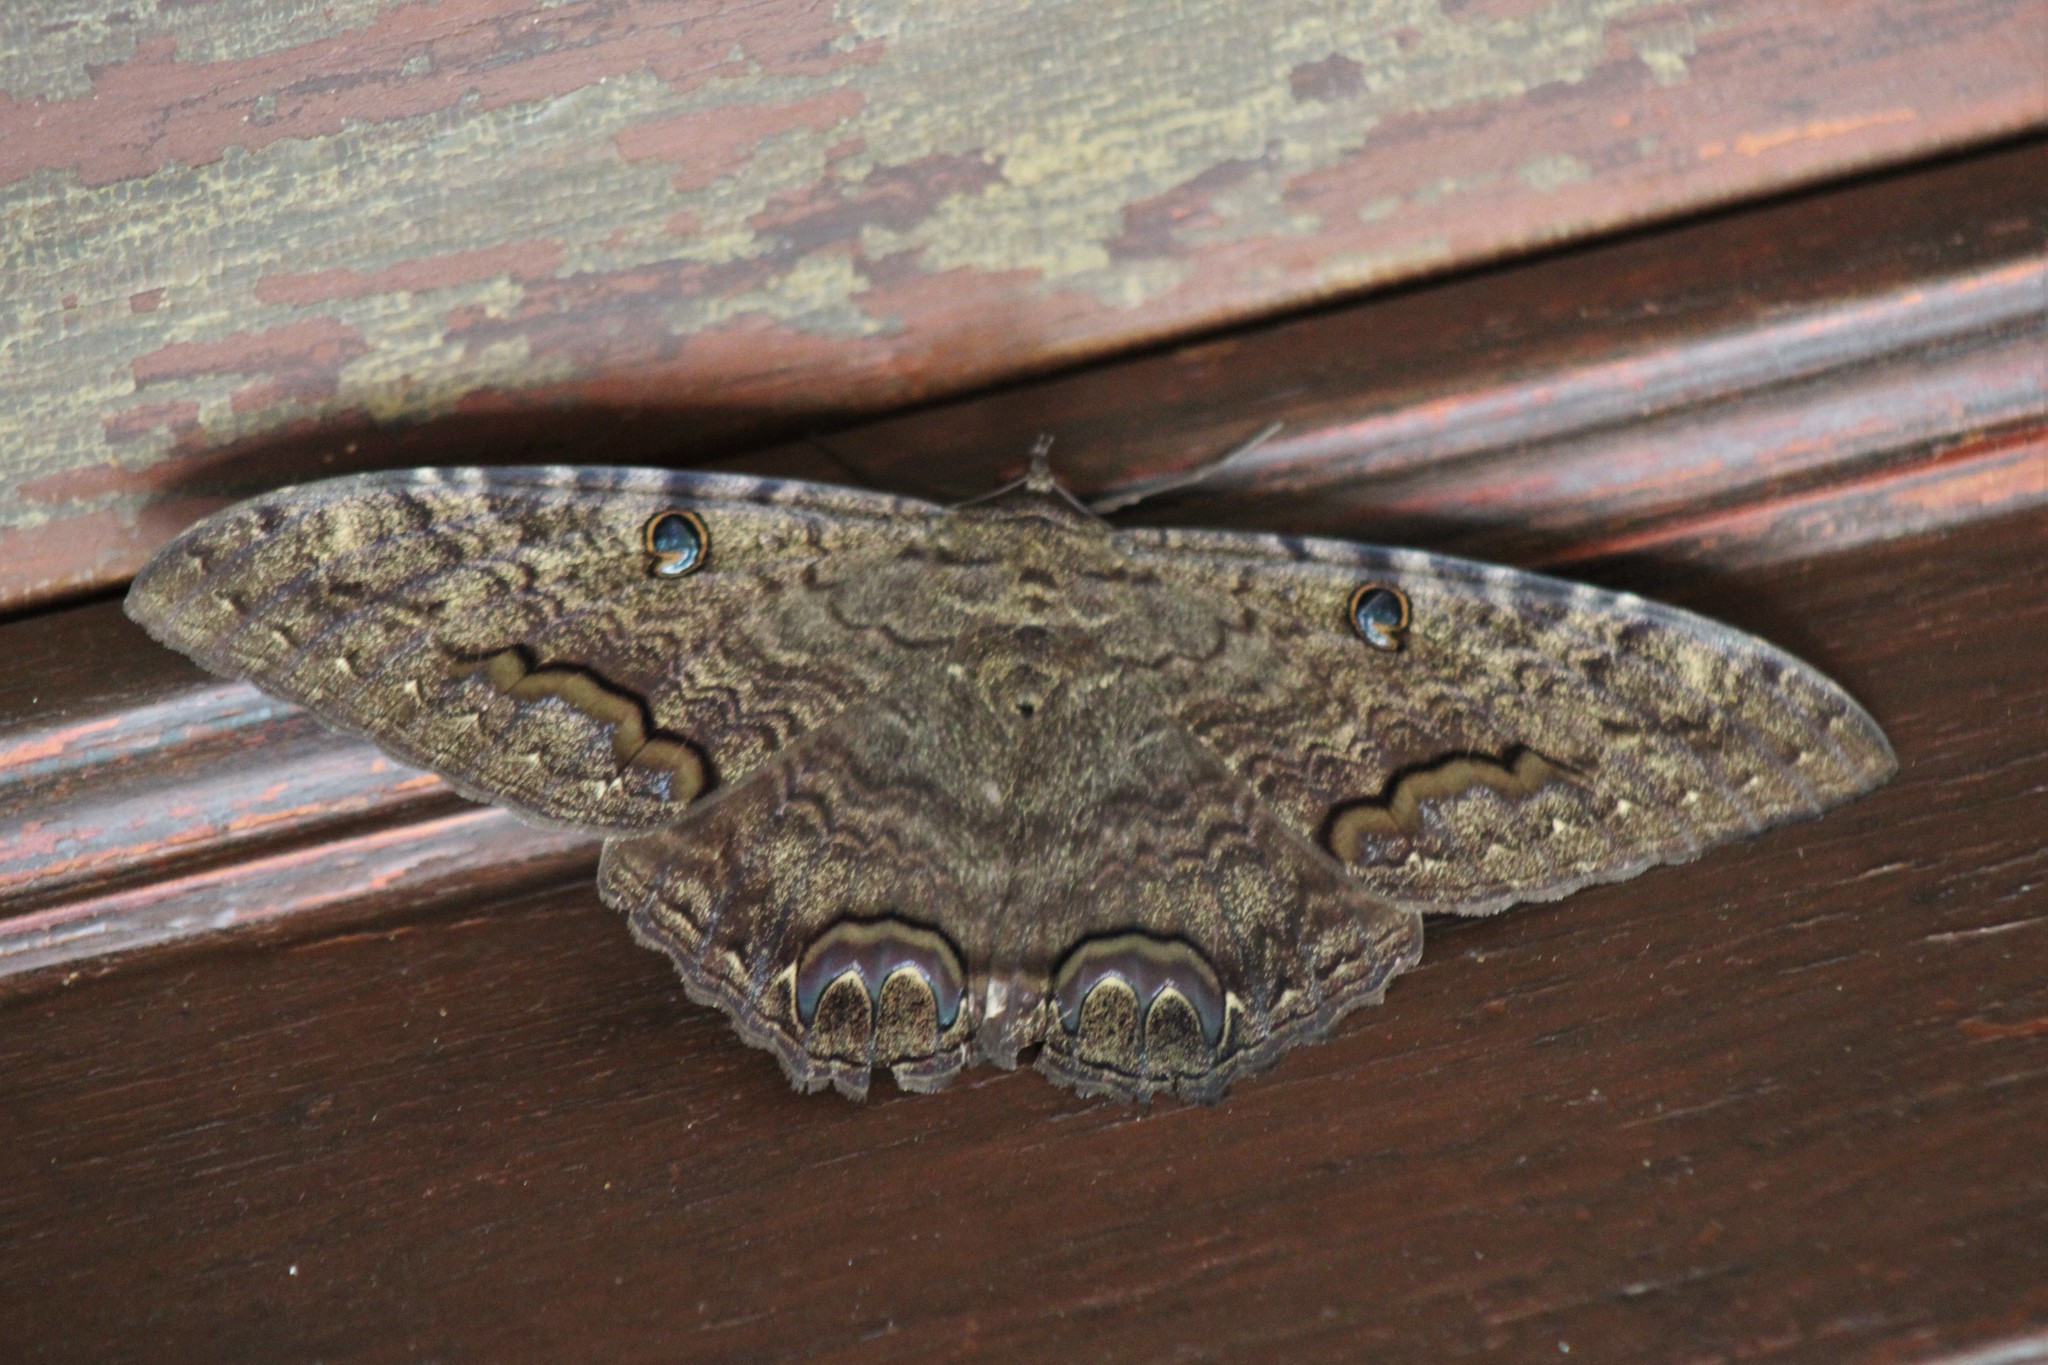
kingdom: Animalia
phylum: Arthropoda
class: Insecta
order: Lepidoptera
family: Erebidae
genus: Ascalapha
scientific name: Ascalapha odorata
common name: Black witch
